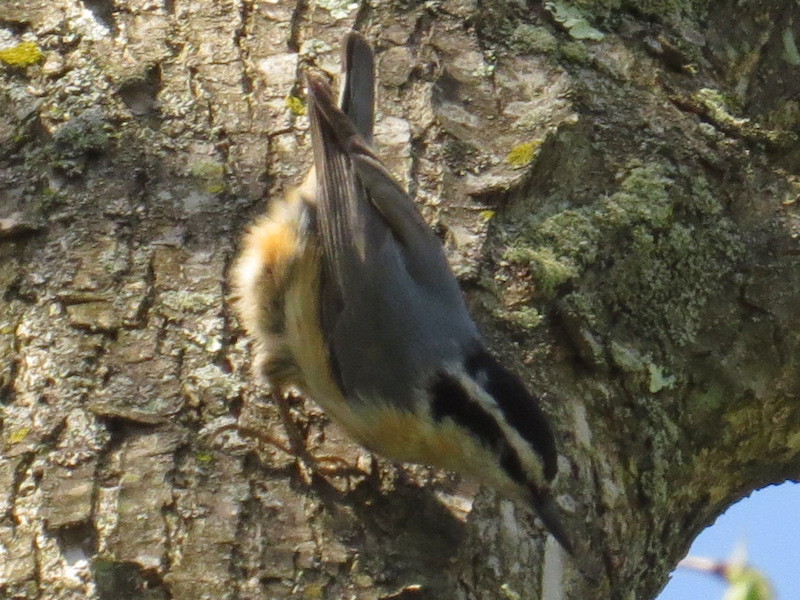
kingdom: Animalia
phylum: Chordata
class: Aves
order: Passeriformes
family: Sittidae
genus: Sitta
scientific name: Sitta canadensis
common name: Red-breasted nuthatch
